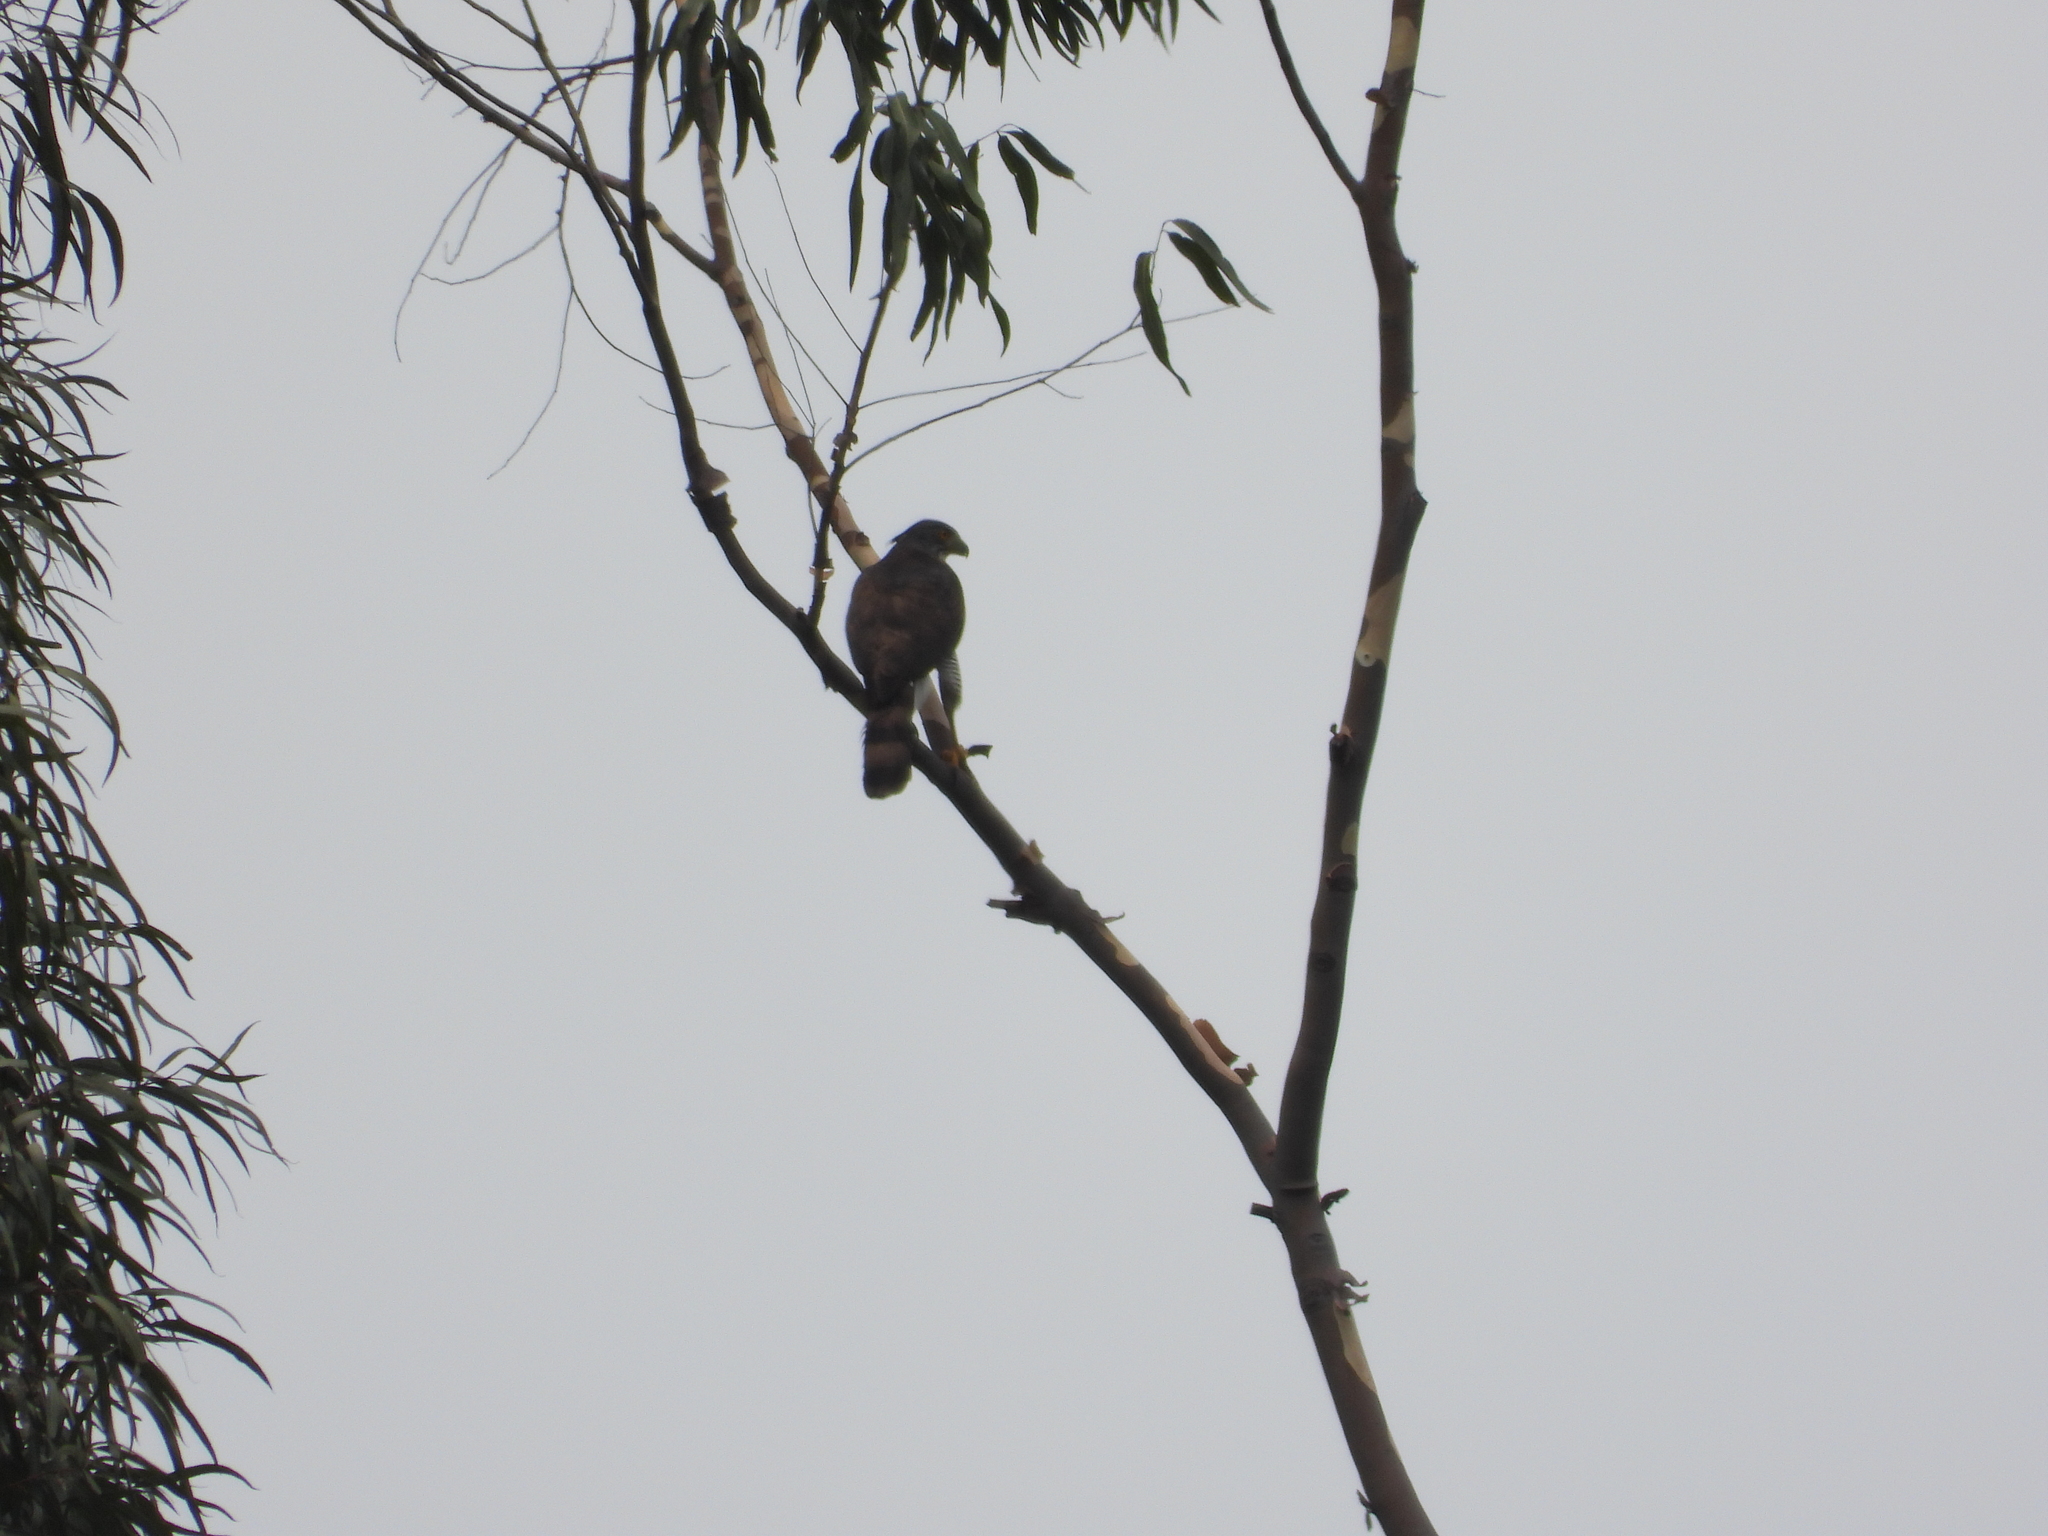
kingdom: Animalia
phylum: Chordata
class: Aves
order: Accipitriformes
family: Accipitridae
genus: Accipiter
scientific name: Accipiter trivirgatus
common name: Crested goshawk
